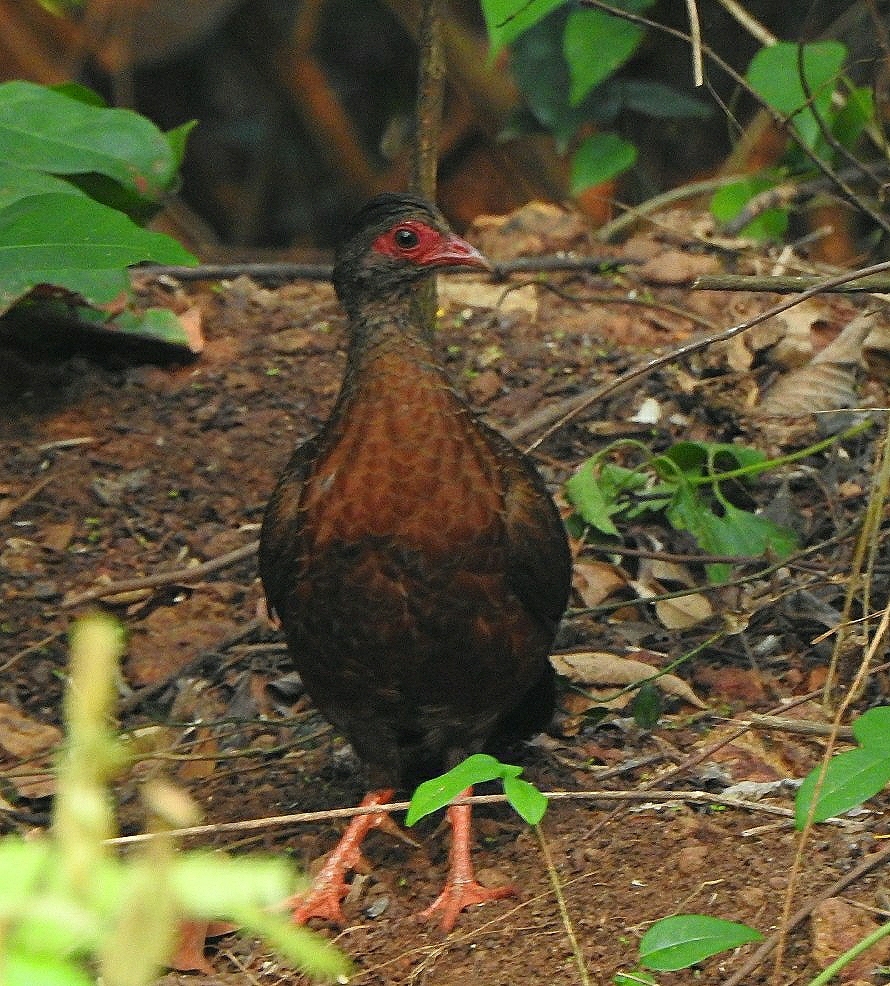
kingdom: Animalia
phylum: Chordata
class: Aves
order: Galliformes
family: Phasianidae
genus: Galloperdix
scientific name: Galloperdix spadicea
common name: Red spurfowl
